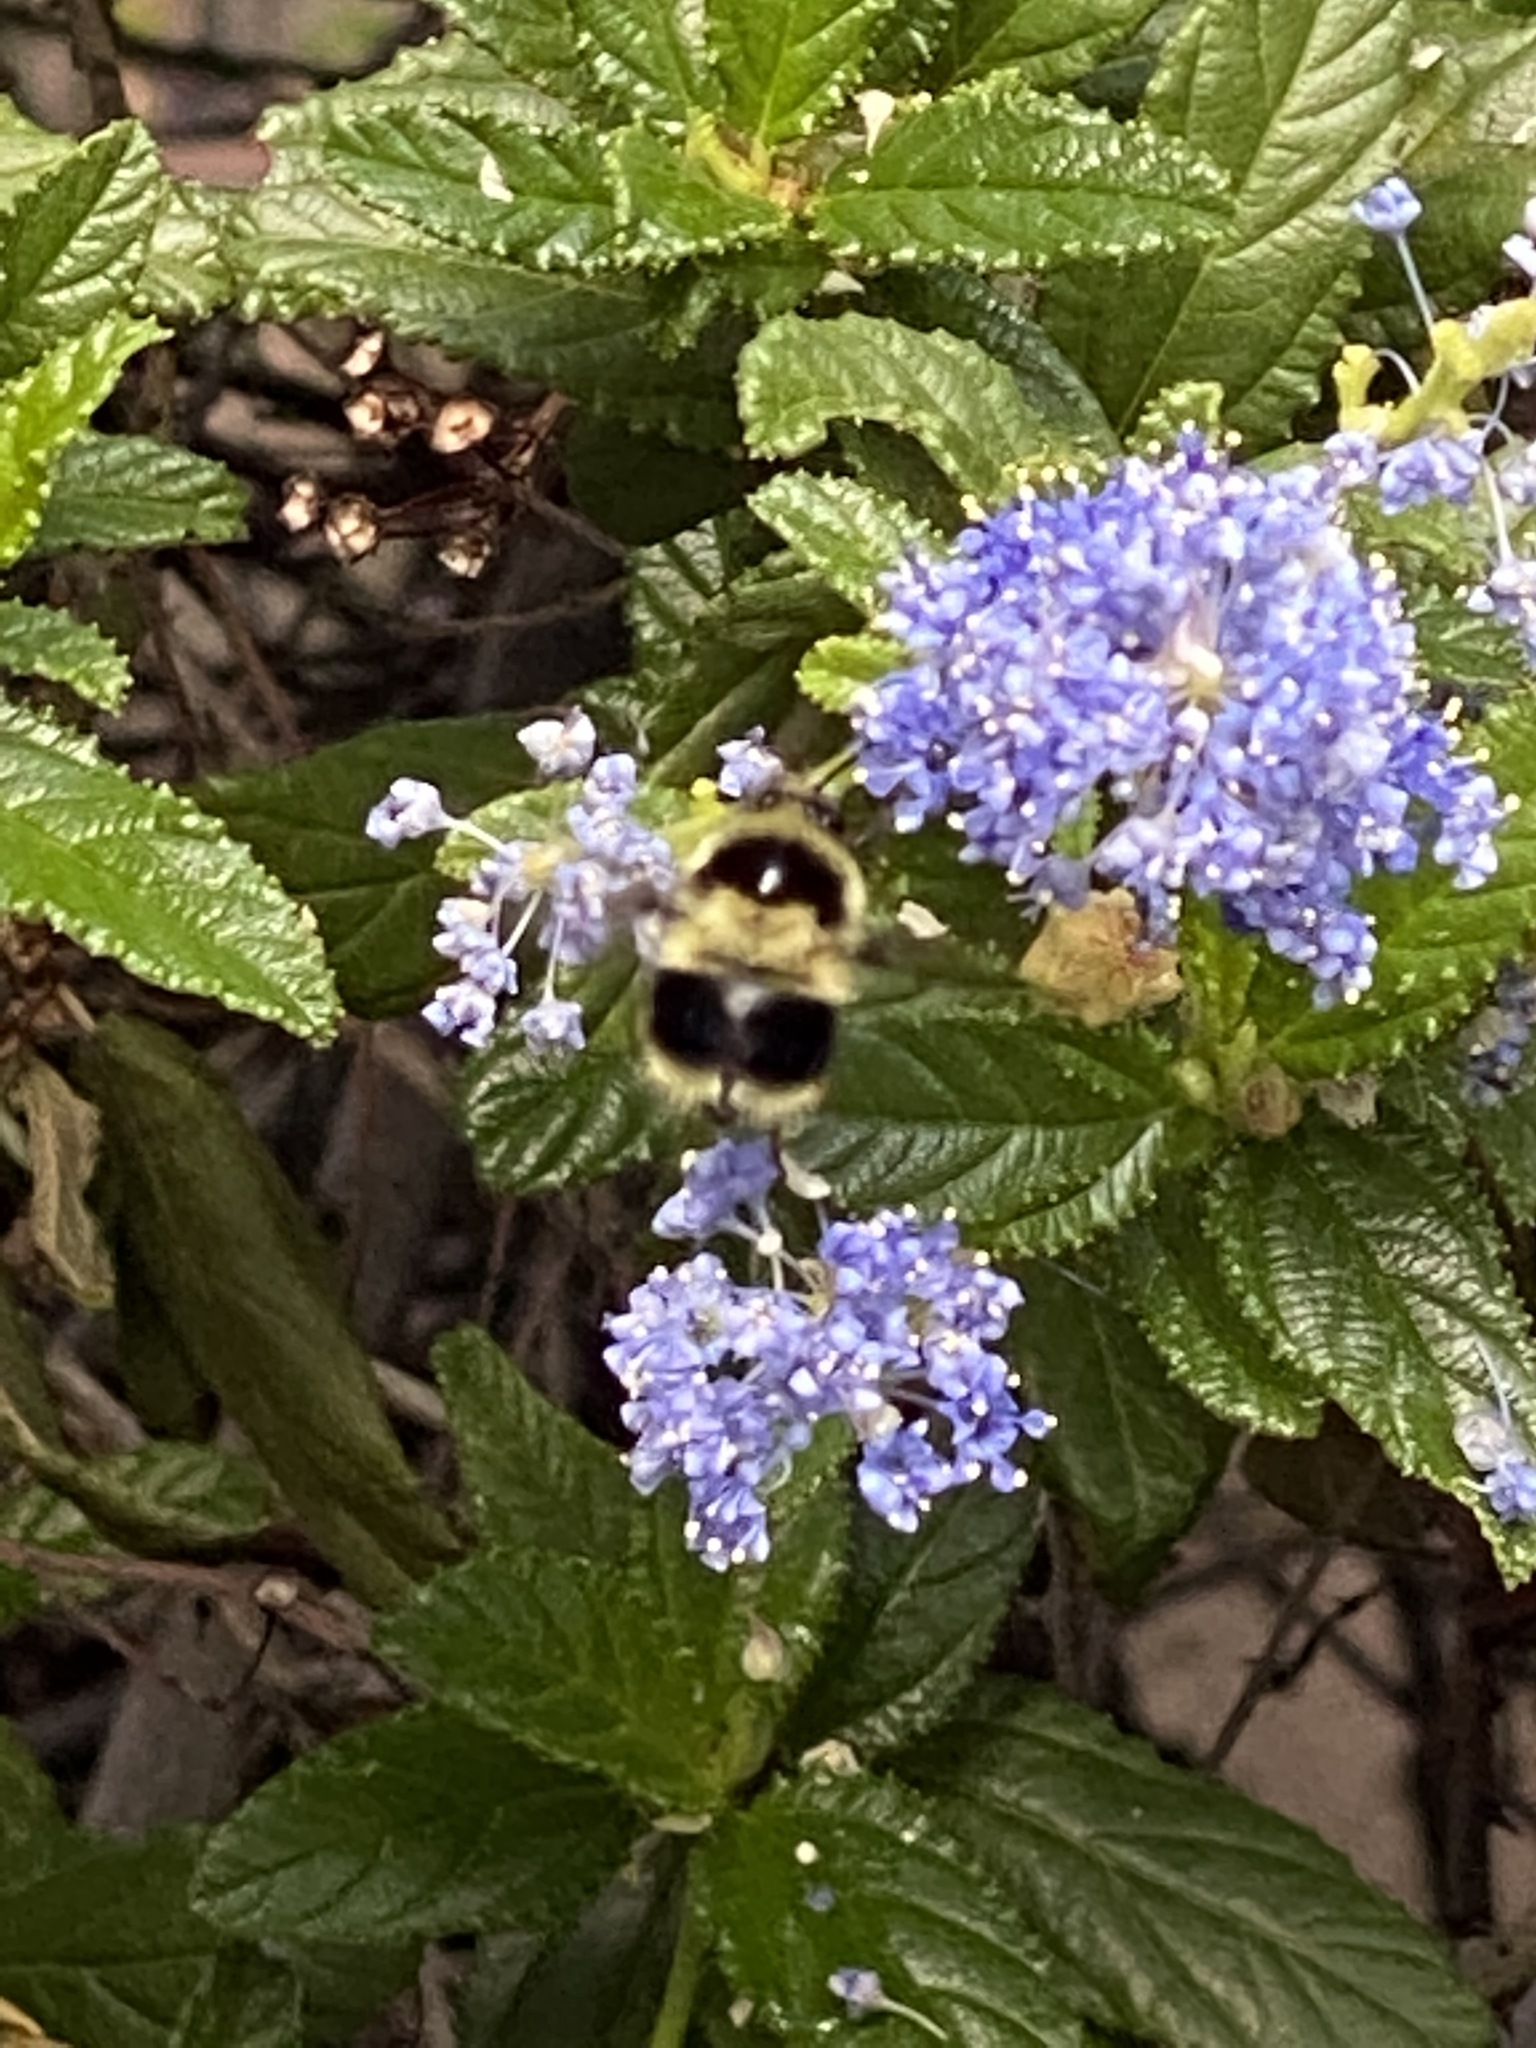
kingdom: Animalia
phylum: Arthropoda
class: Insecta
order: Hymenoptera
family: Apidae
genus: Bombus
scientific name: Bombus melanopygus
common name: Black tail bumble bee
